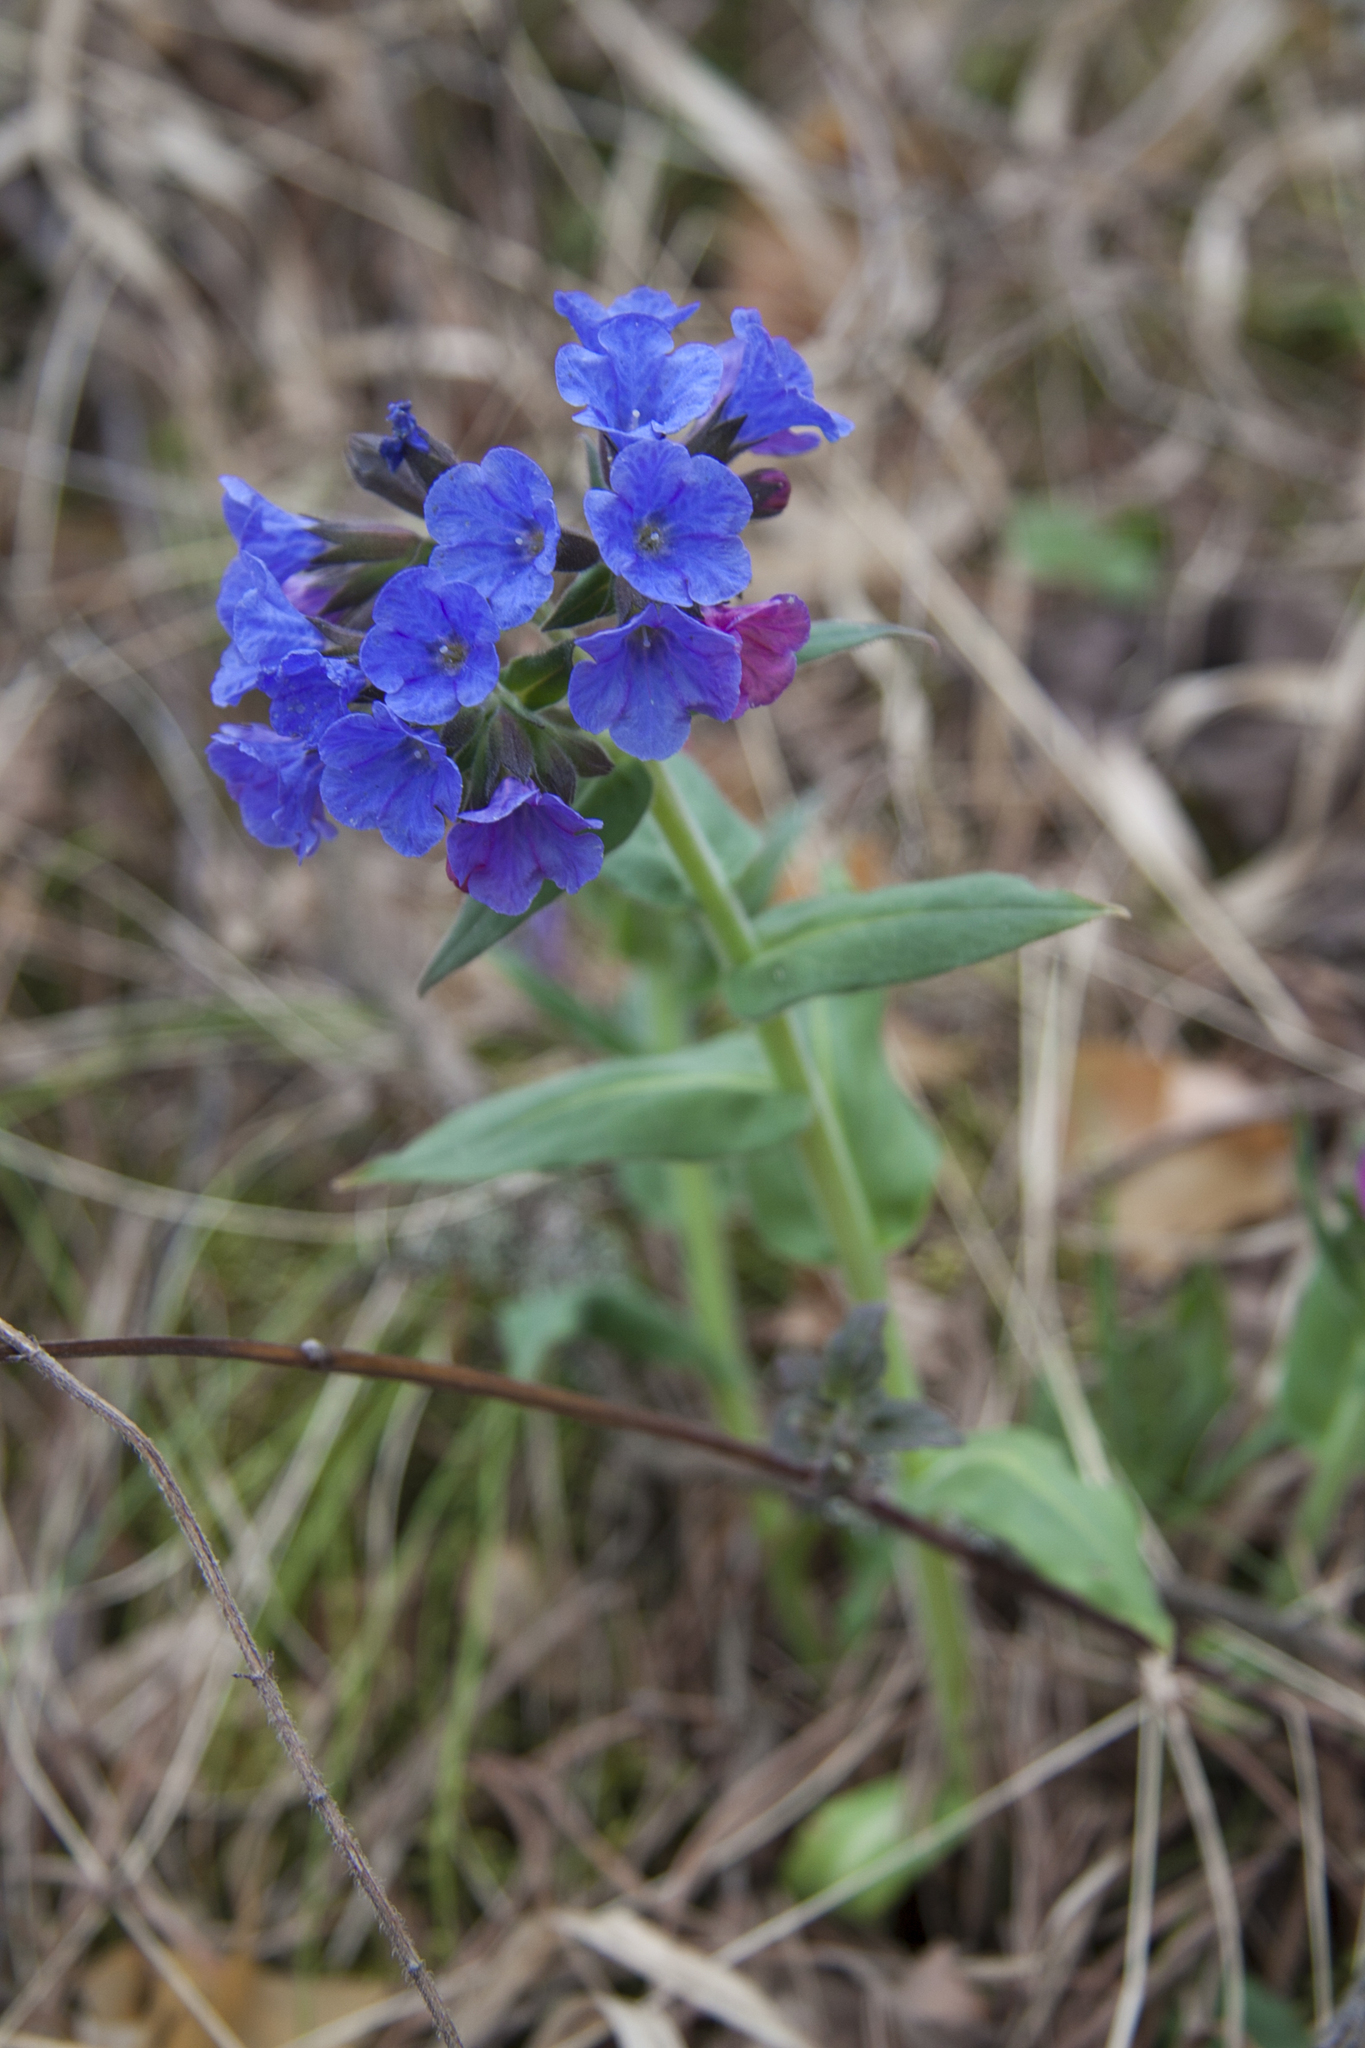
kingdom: Plantae
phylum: Tracheophyta
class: Magnoliopsida
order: Boraginales
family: Boraginaceae
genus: Pulmonaria
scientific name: Pulmonaria mollis
